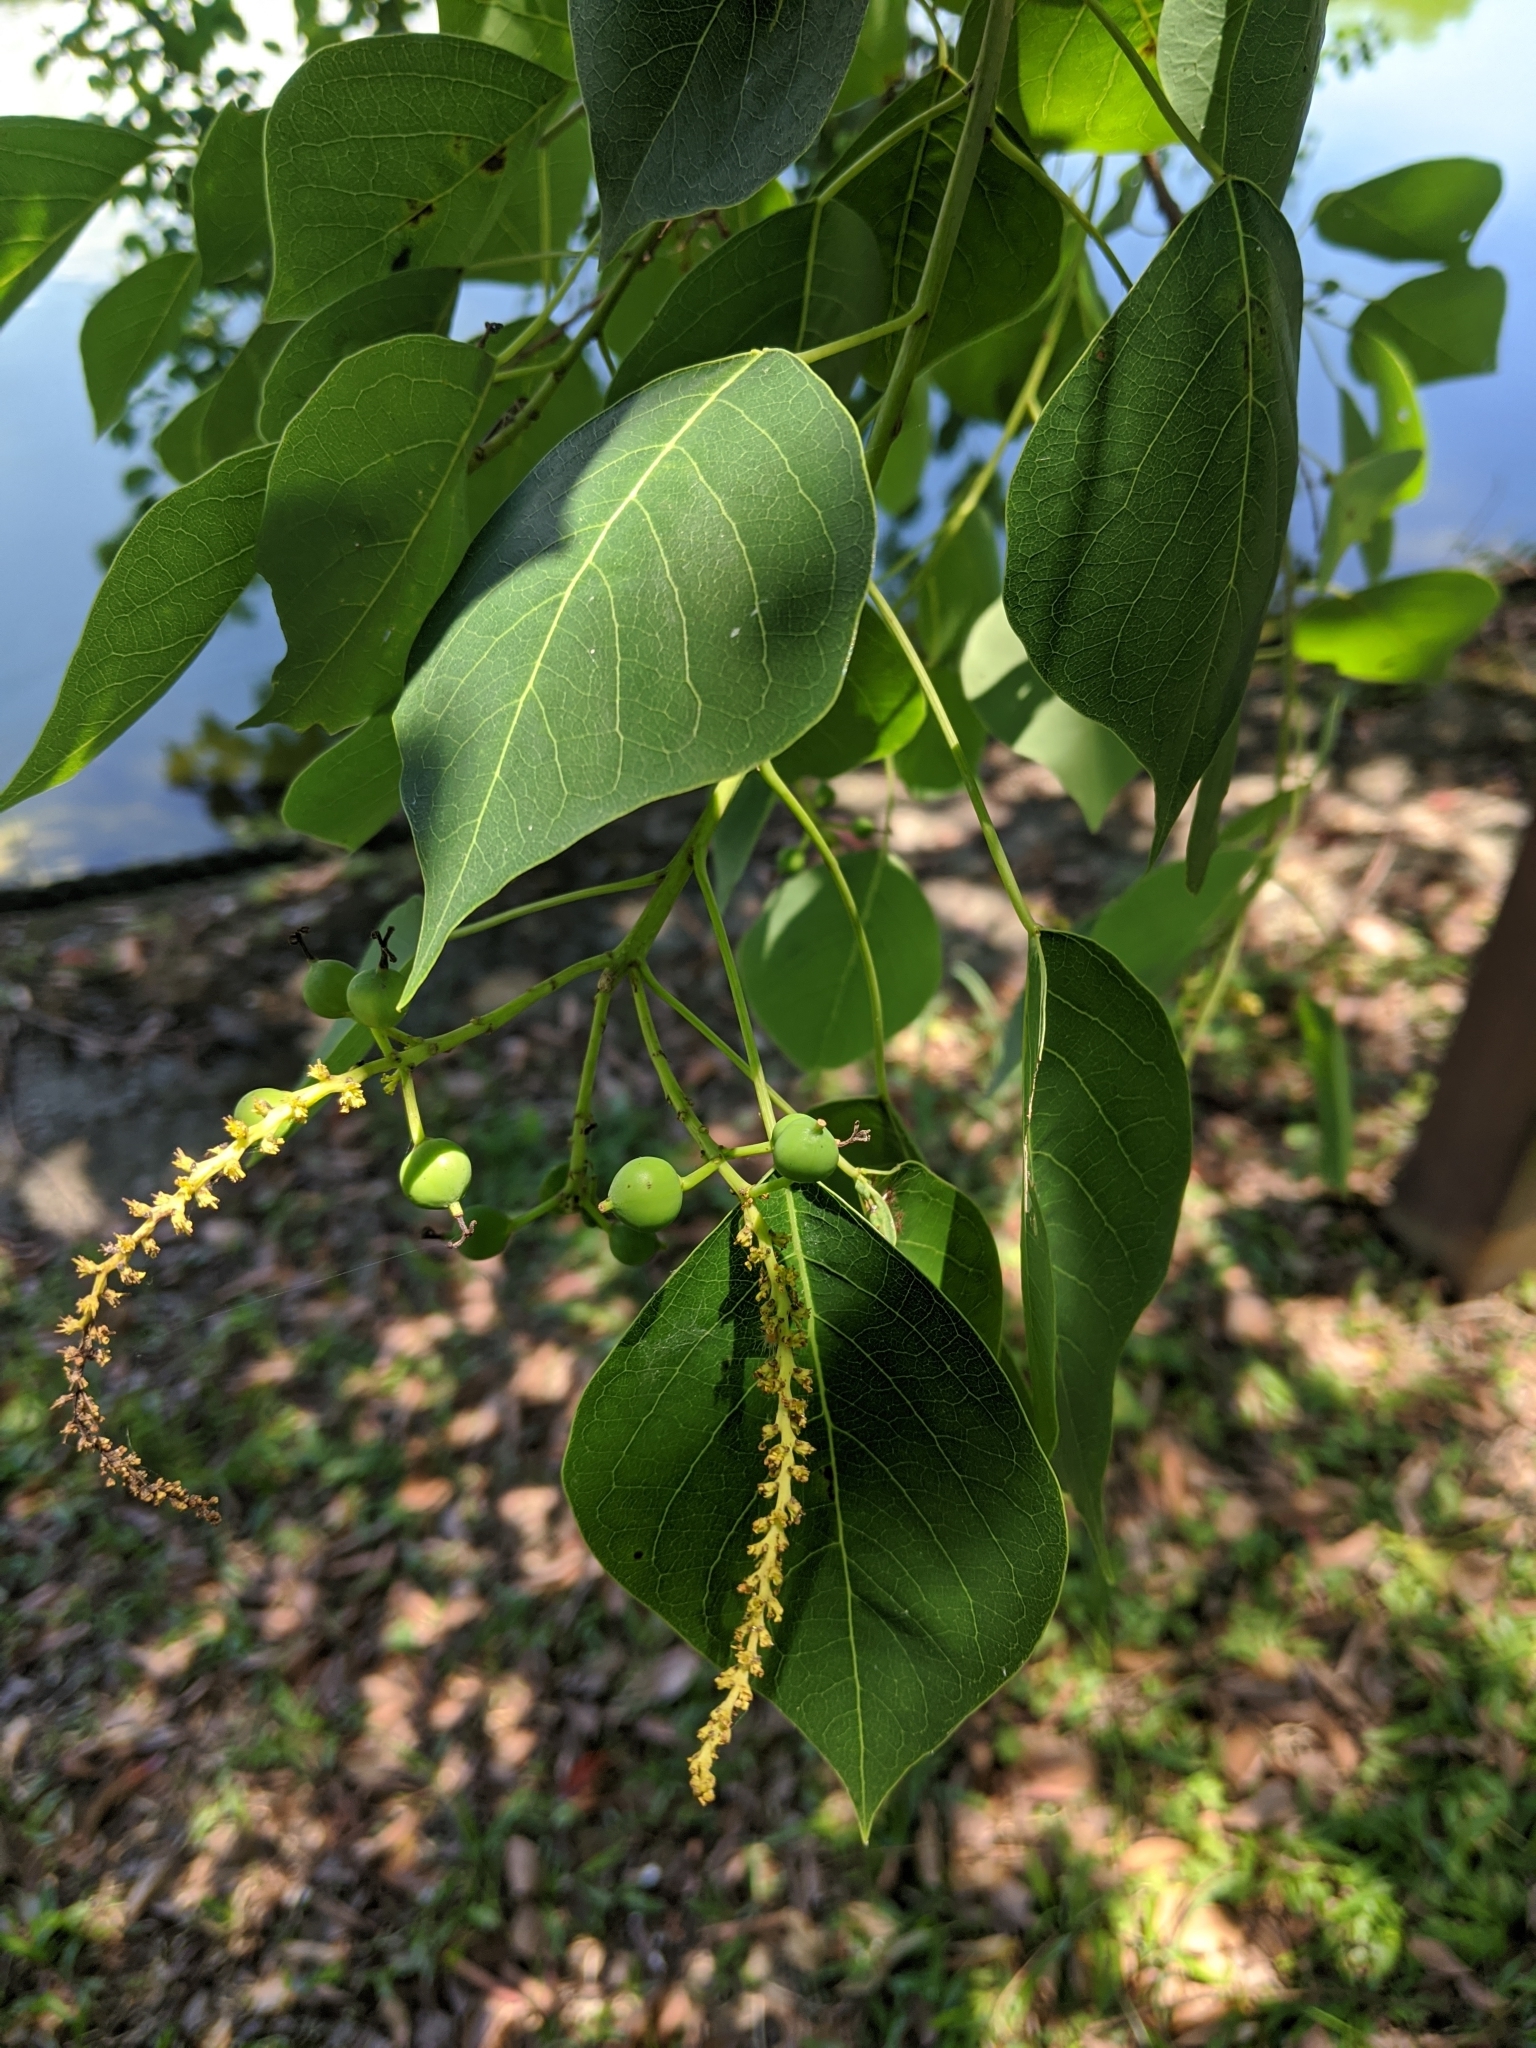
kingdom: Plantae
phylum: Tracheophyta
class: Magnoliopsida
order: Malpighiales
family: Euphorbiaceae
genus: Triadica
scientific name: Triadica sebifera
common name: Chinese tallow
